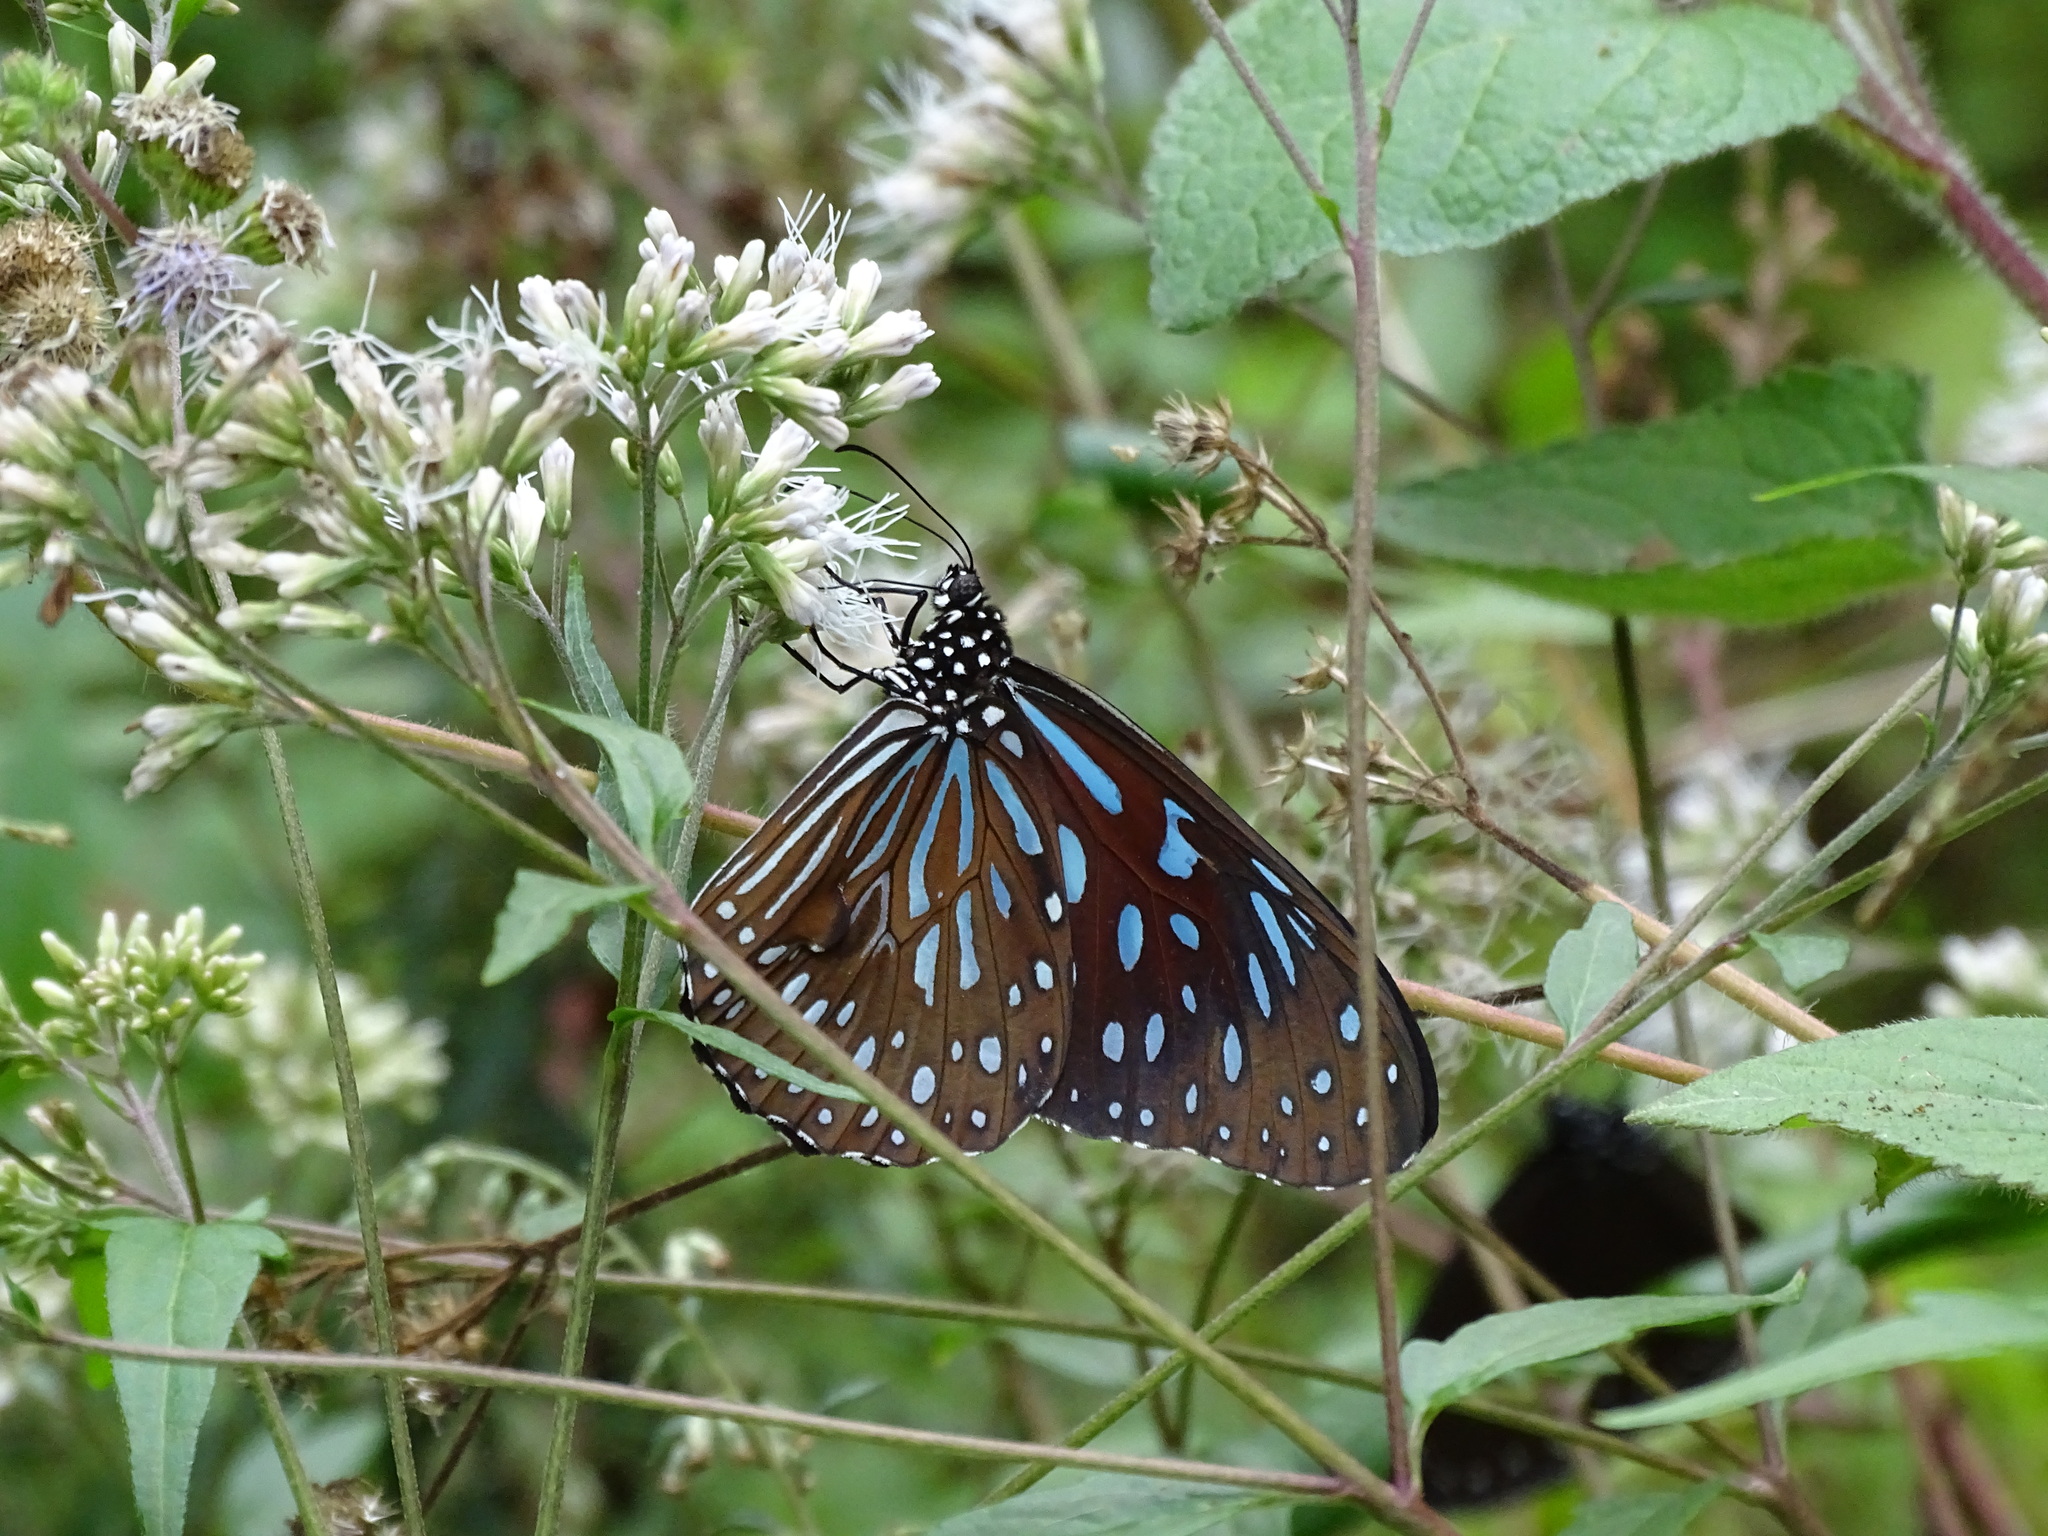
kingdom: Animalia
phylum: Arthropoda
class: Insecta
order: Lepidoptera
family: Nymphalidae
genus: Tirumala
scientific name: Tirumala septentrionis
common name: Dark blue tiger butterfly
